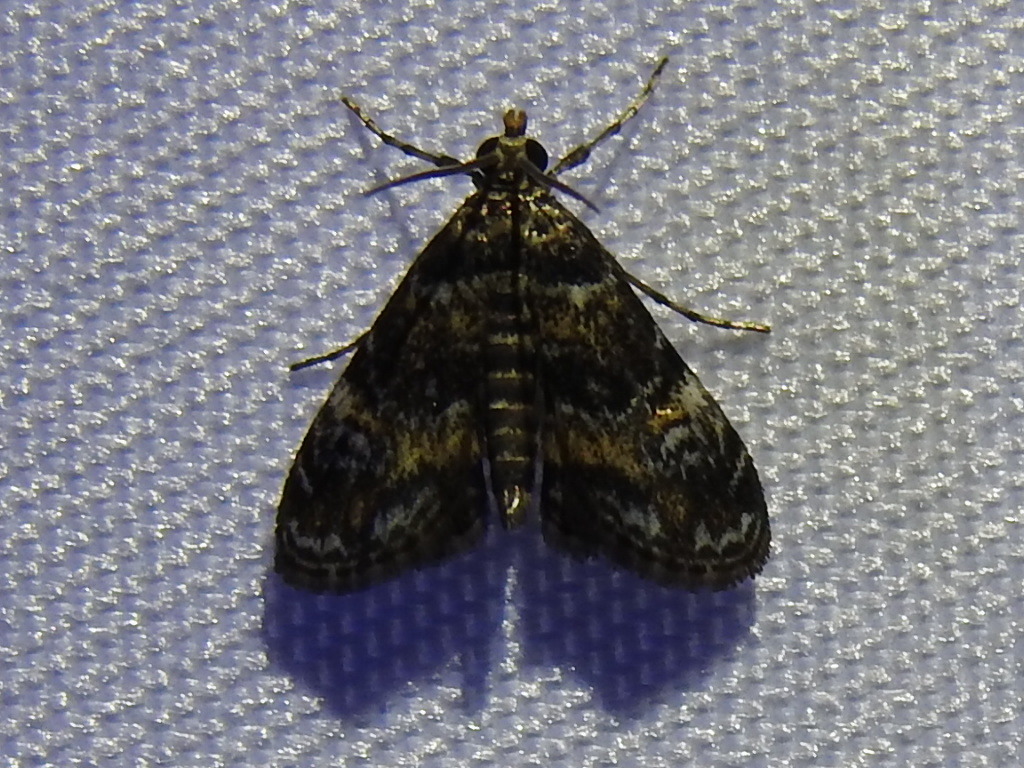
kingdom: Animalia
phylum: Arthropoda
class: Insecta
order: Lepidoptera
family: Crambidae
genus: Elophila
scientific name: Elophila obliteralis
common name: Waterlily leafcutter moth
